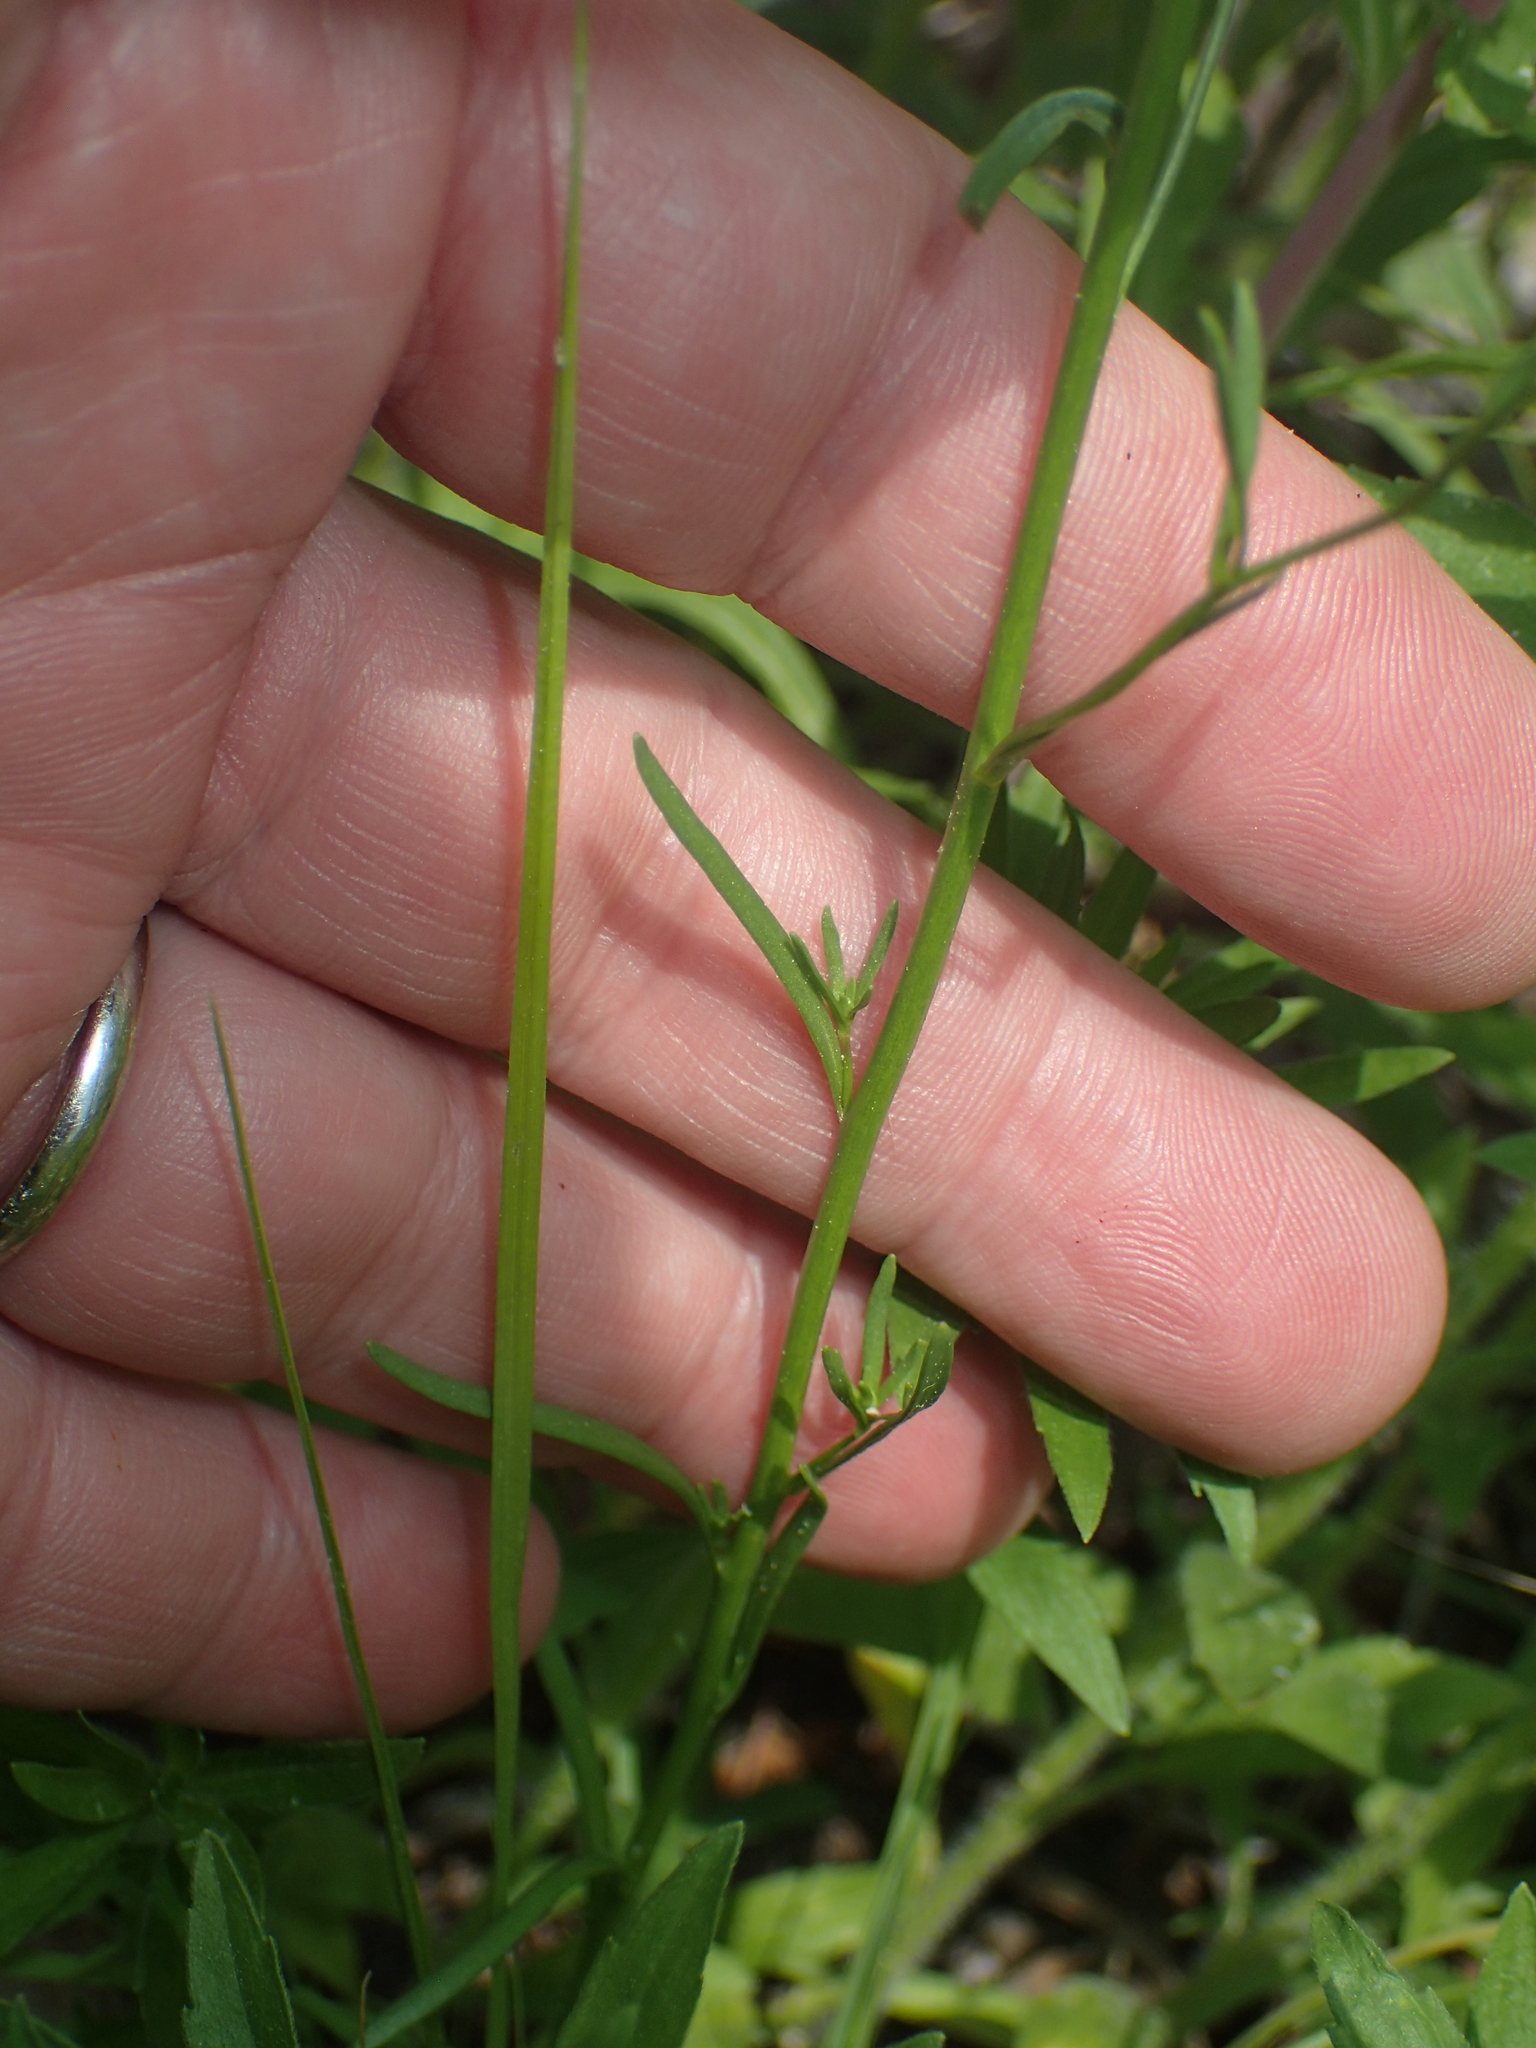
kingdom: Plantae
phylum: Tracheophyta
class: Magnoliopsida
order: Lamiales
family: Plantaginaceae
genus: Nuttallanthus
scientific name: Nuttallanthus canadensis
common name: Blue toadflax
